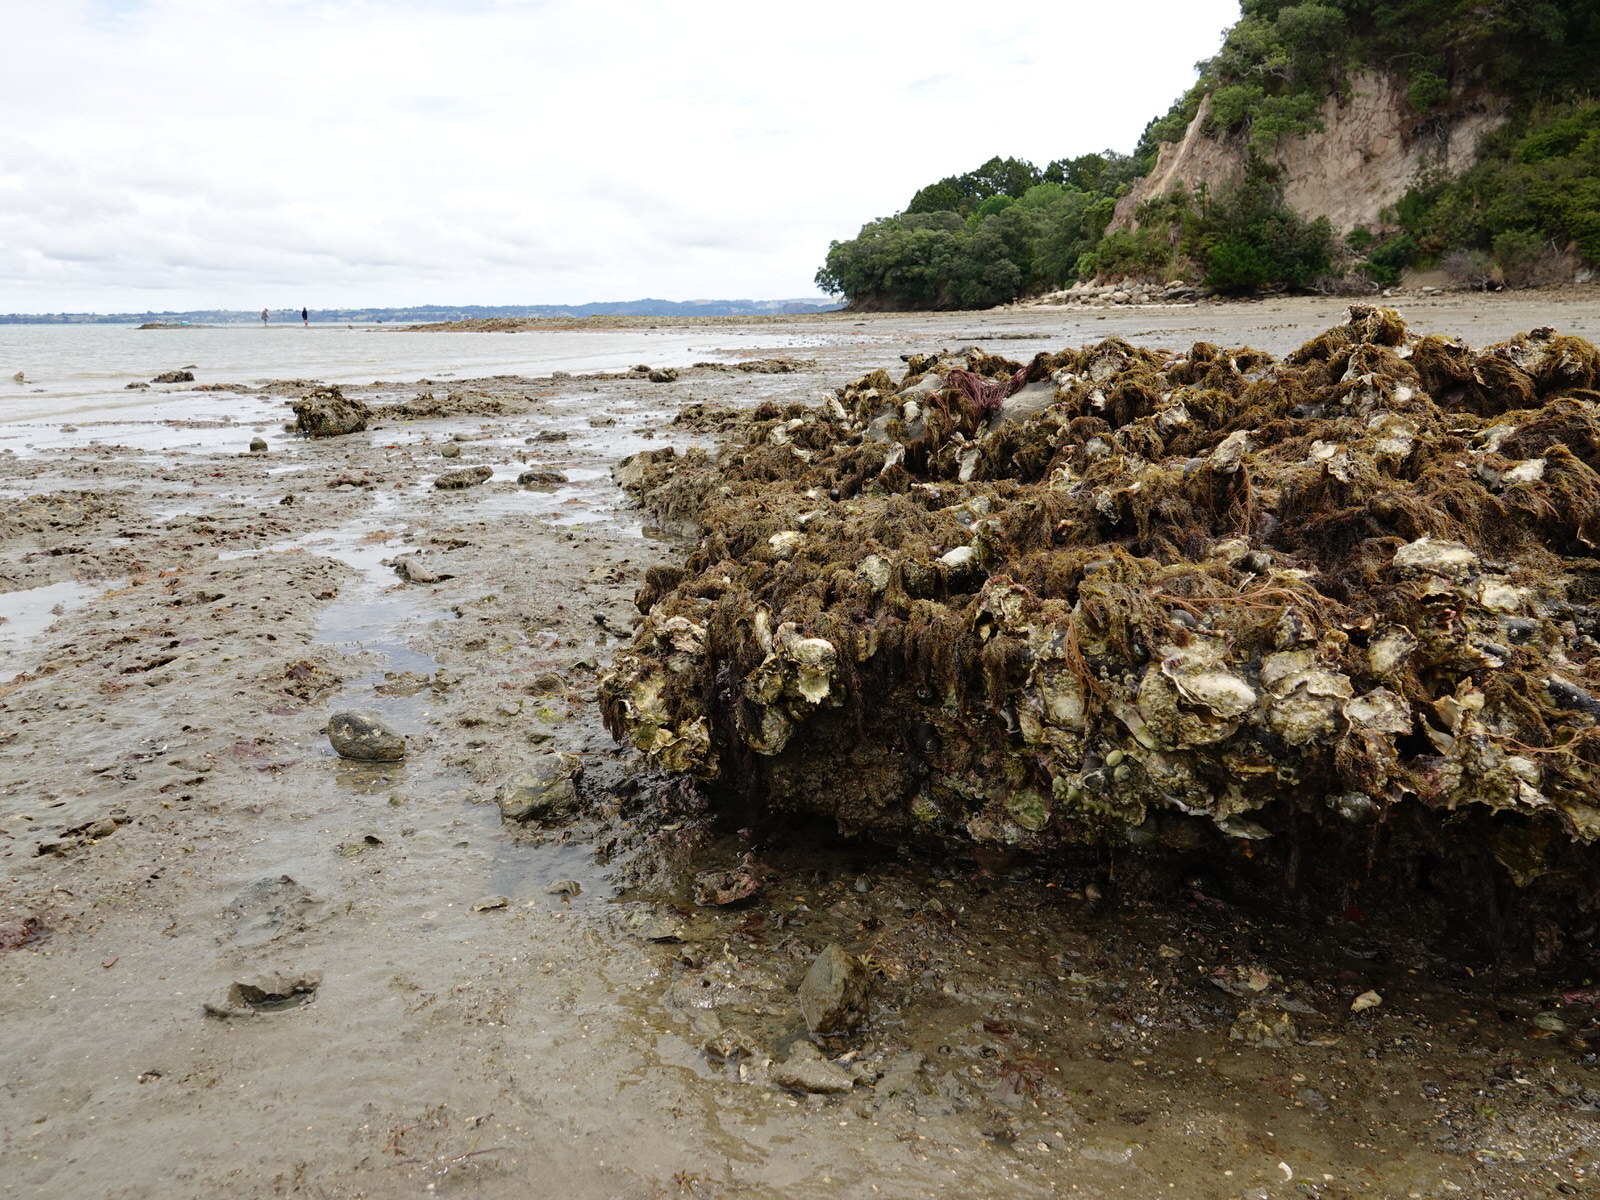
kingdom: Animalia
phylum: Echinodermata
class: Asteroidea
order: Valvatida
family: Asterinidae
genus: Patiriella
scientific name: Patiriella regularis
